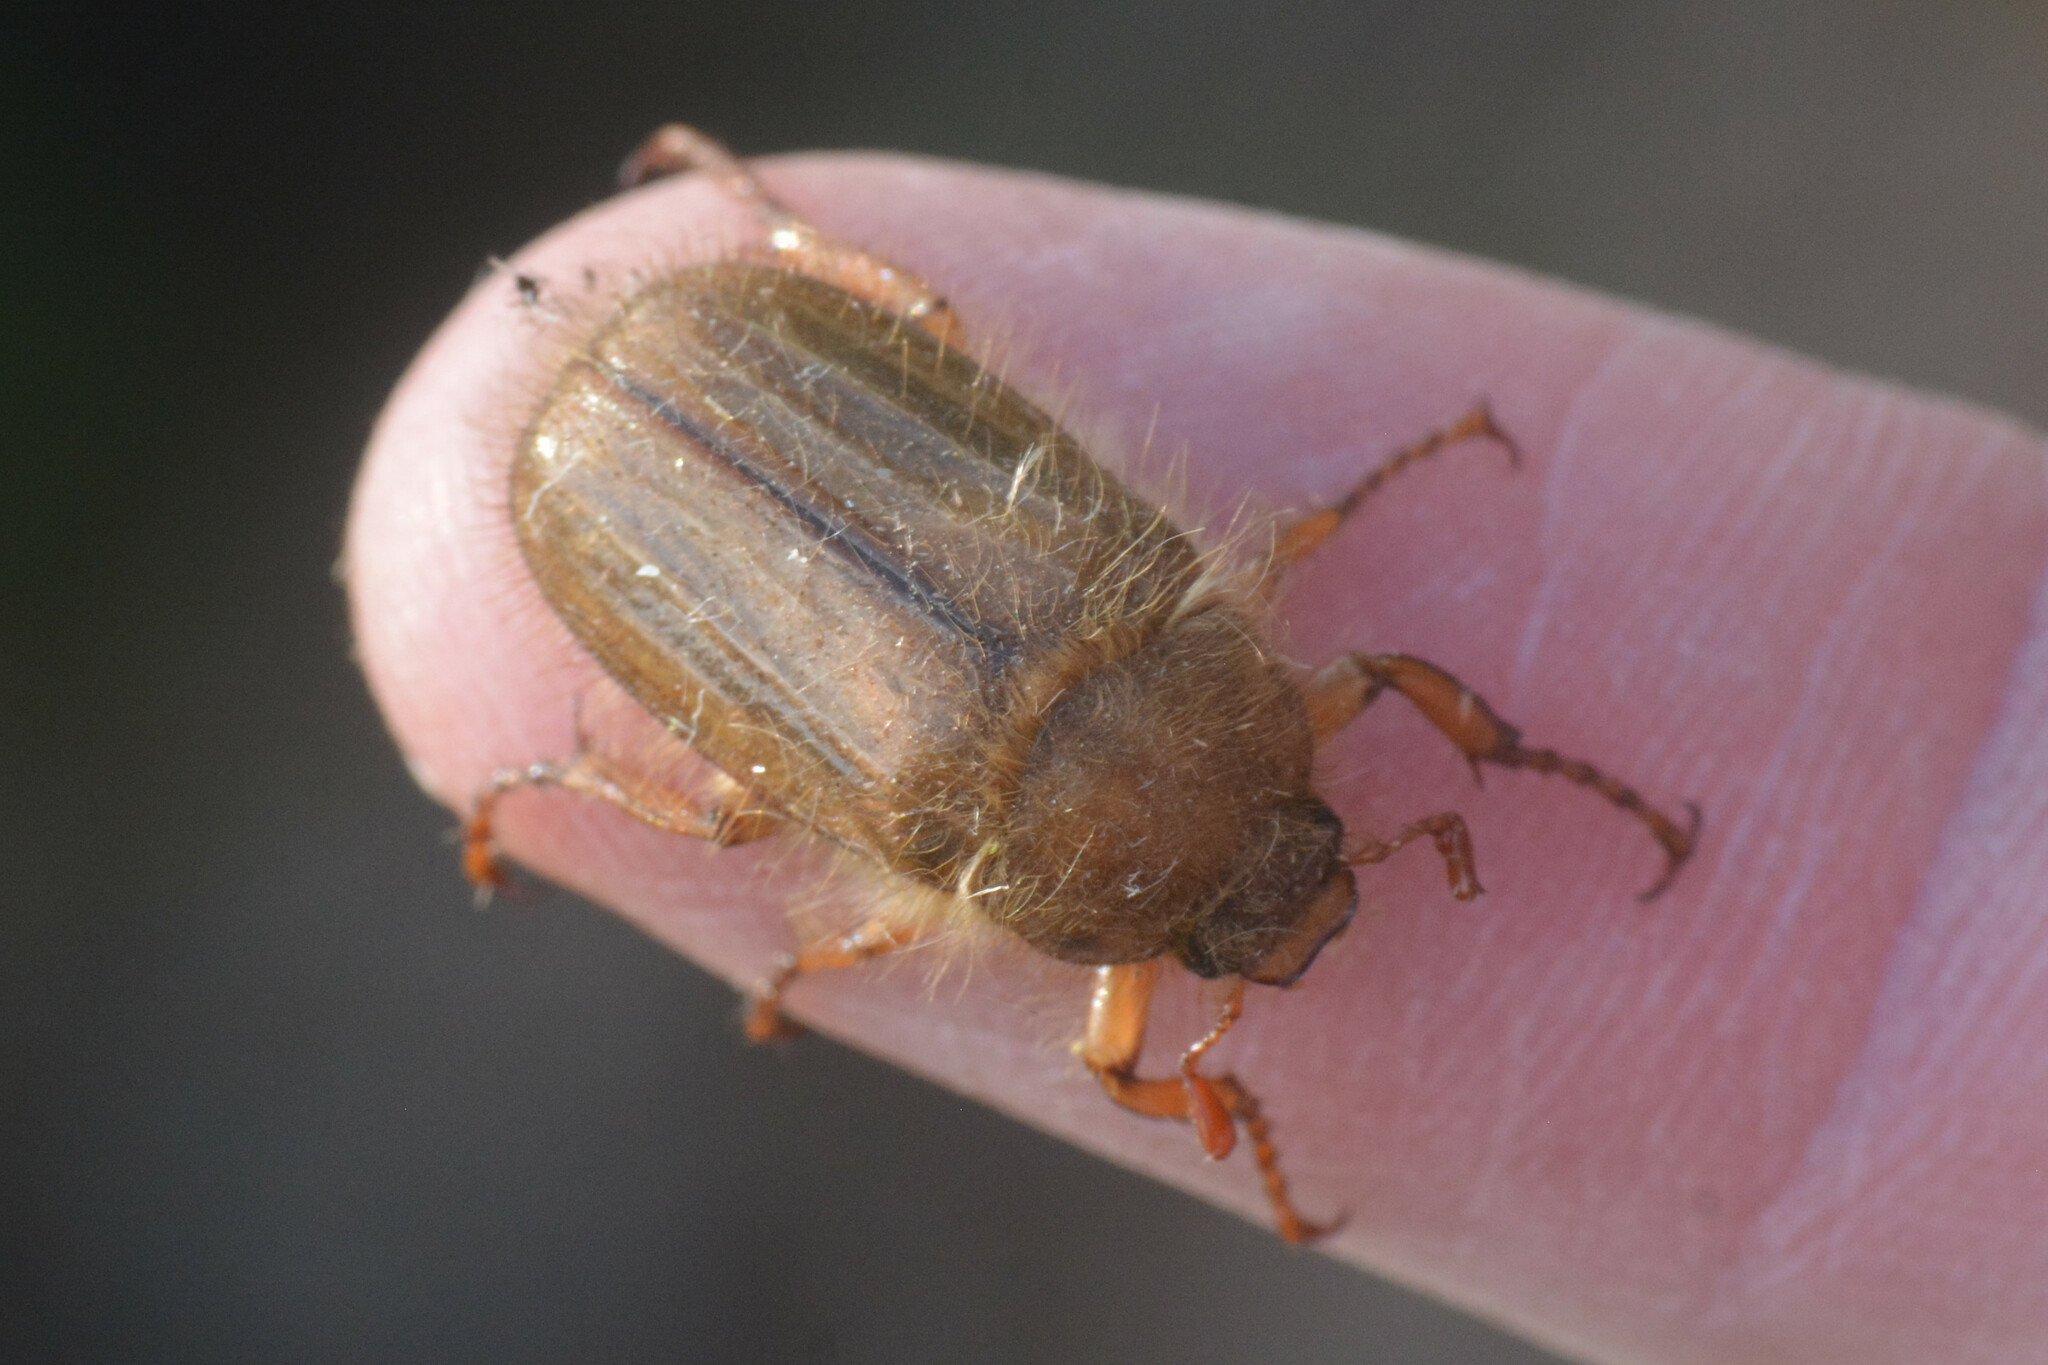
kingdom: Animalia
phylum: Arthropoda
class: Insecta
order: Coleoptera
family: Scarabaeidae
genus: Amphimallon
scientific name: Amphimallon solstitiale
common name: Summer chafer
